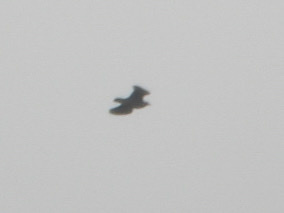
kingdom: Animalia
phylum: Chordata
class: Aves
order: Columbiformes
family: Columbidae
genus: Patagioenas
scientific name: Patagioenas fasciata
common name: Band-tailed pigeon
